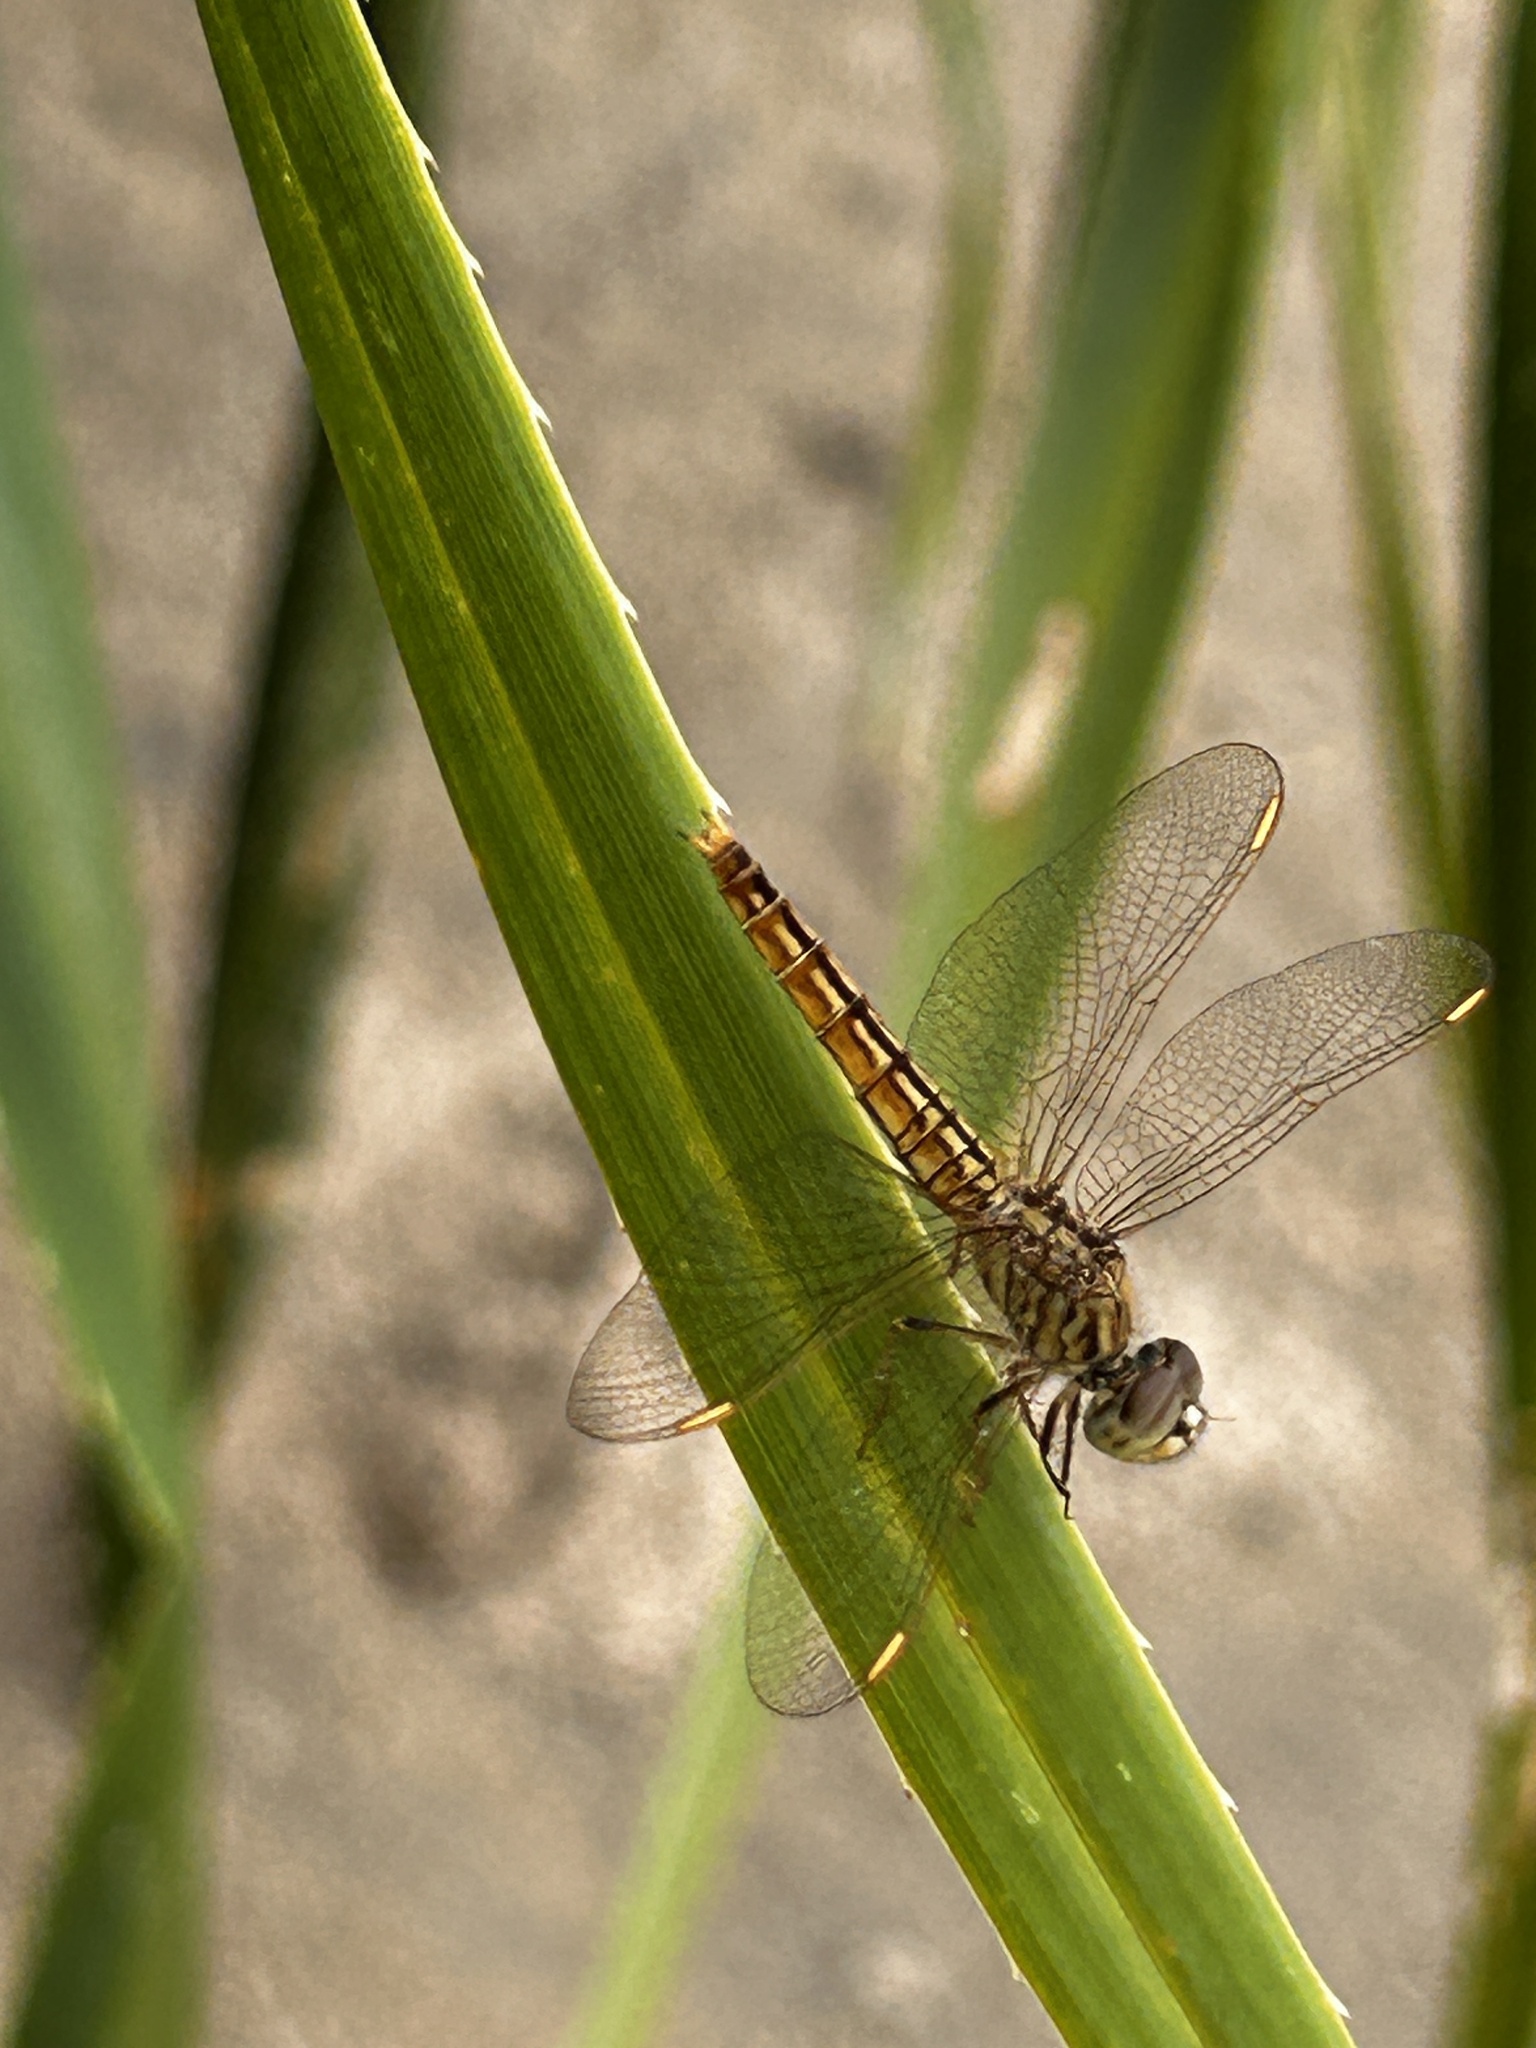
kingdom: Animalia
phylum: Arthropoda
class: Insecta
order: Odonata
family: Libellulidae
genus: Brachythemis
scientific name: Brachythemis contaminata
